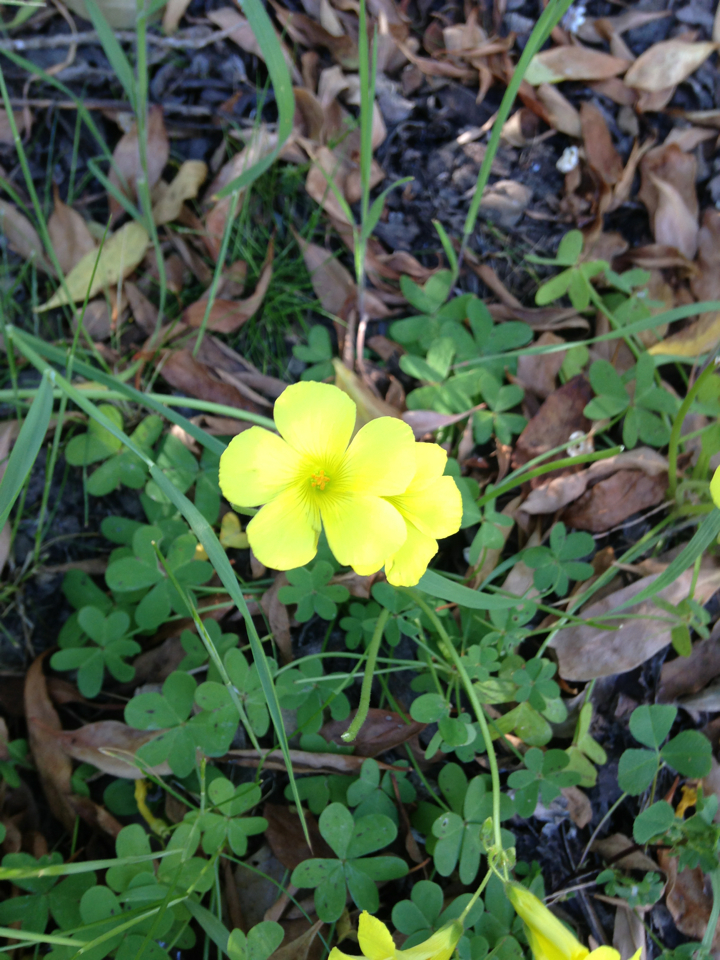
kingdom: Plantae
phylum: Tracheophyta
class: Magnoliopsida
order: Oxalidales
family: Oxalidaceae
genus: Oxalis
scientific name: Oxalis pes-caprae
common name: Bermuda-buttercup
